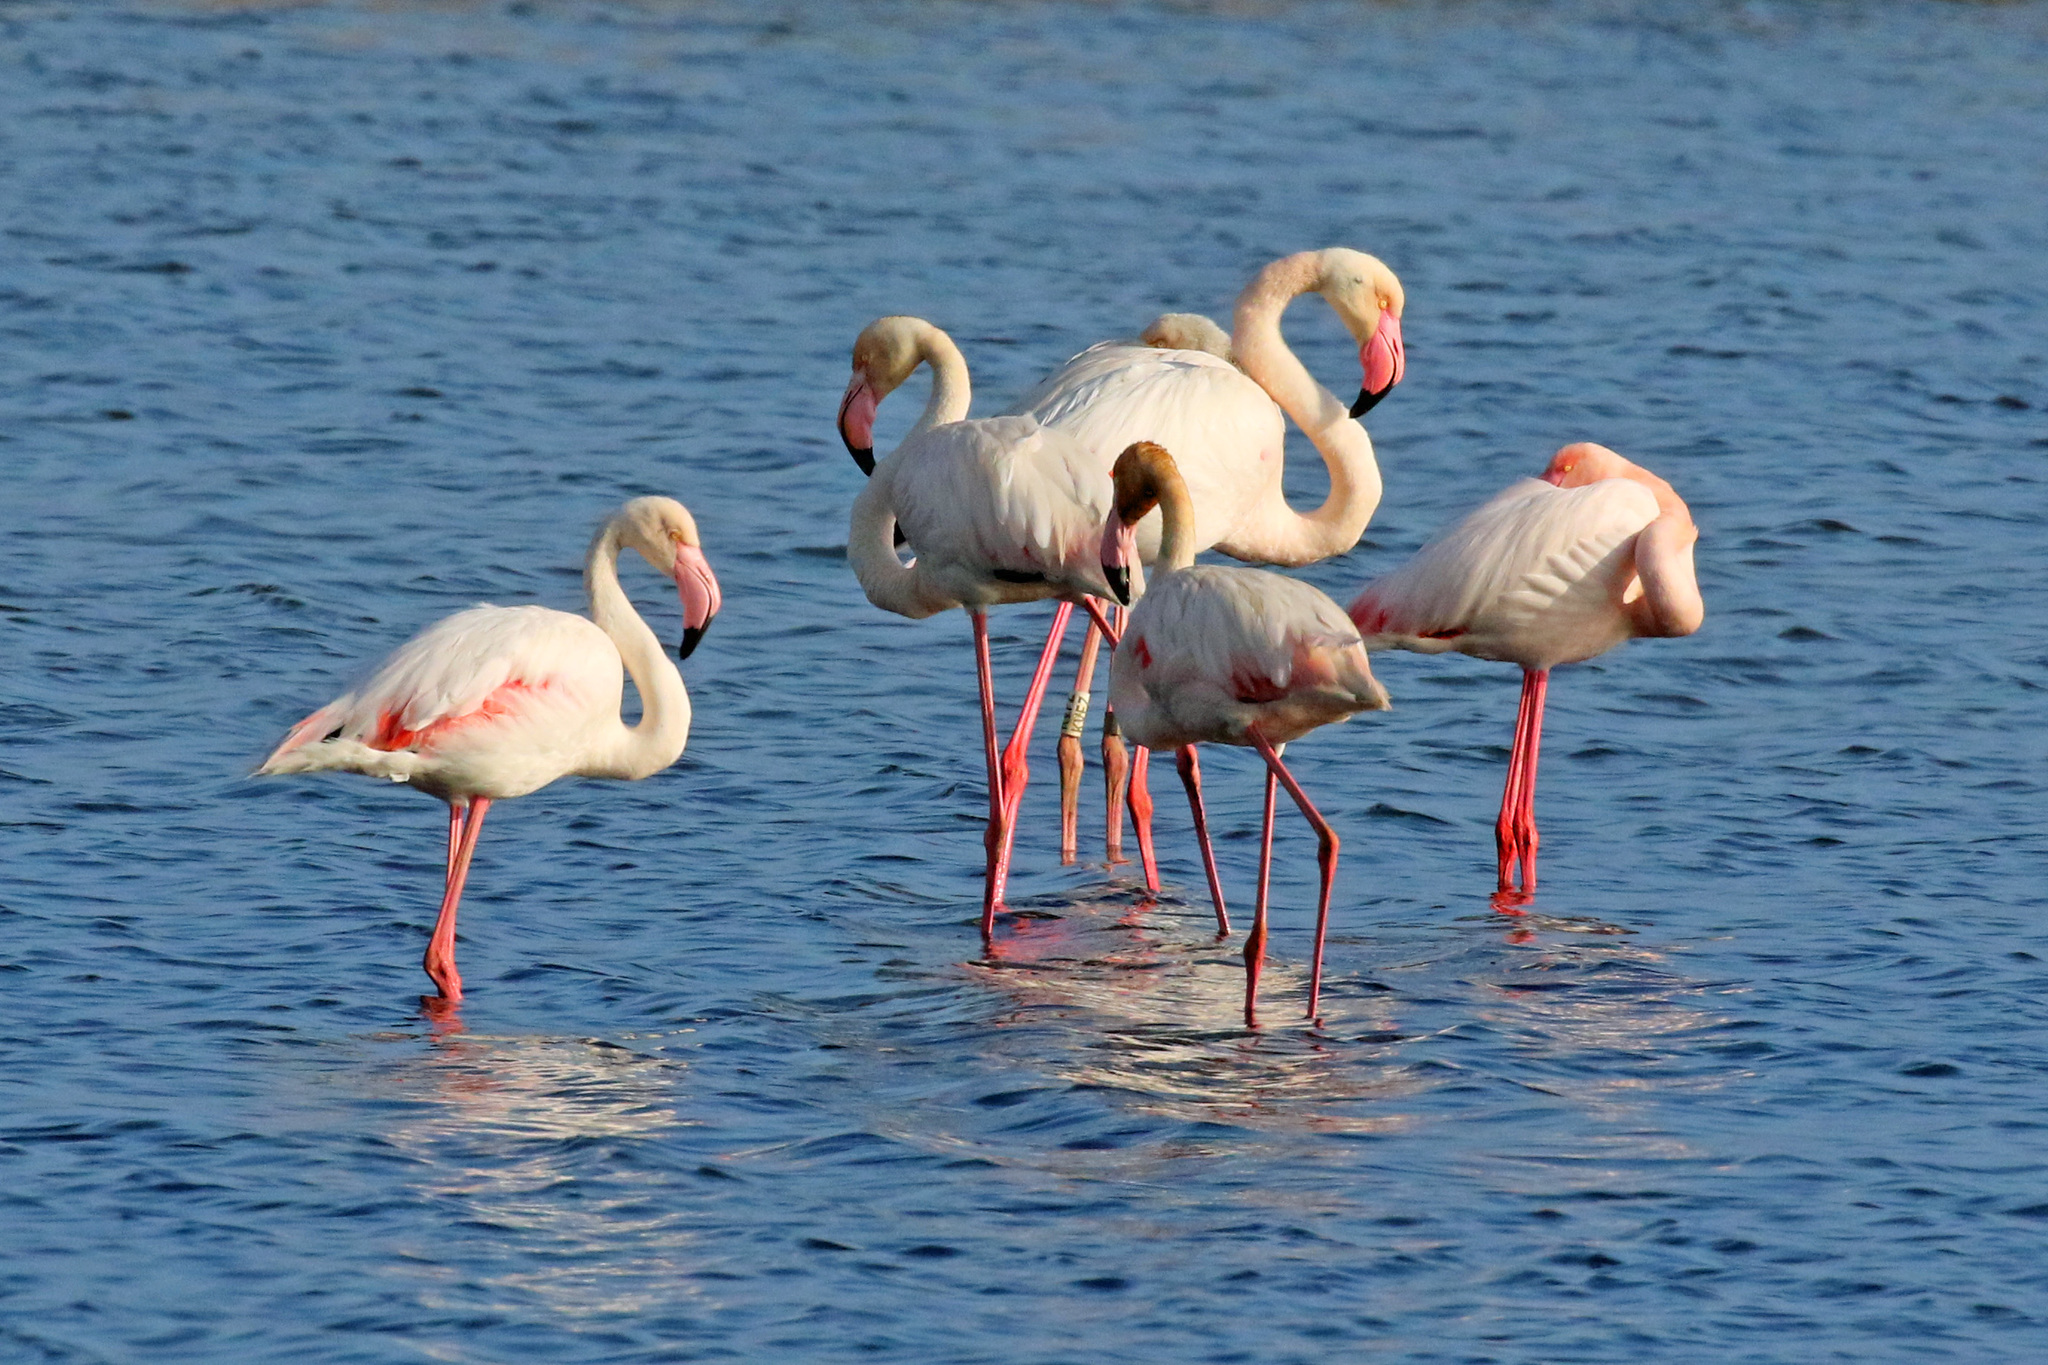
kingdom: Animalia
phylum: Chordata
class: Aves
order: Phoenicopteriformes
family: Phoenicopteridae
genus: Phoenicopterus
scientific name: Phoenicopterus roseus
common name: Greater flamingo
